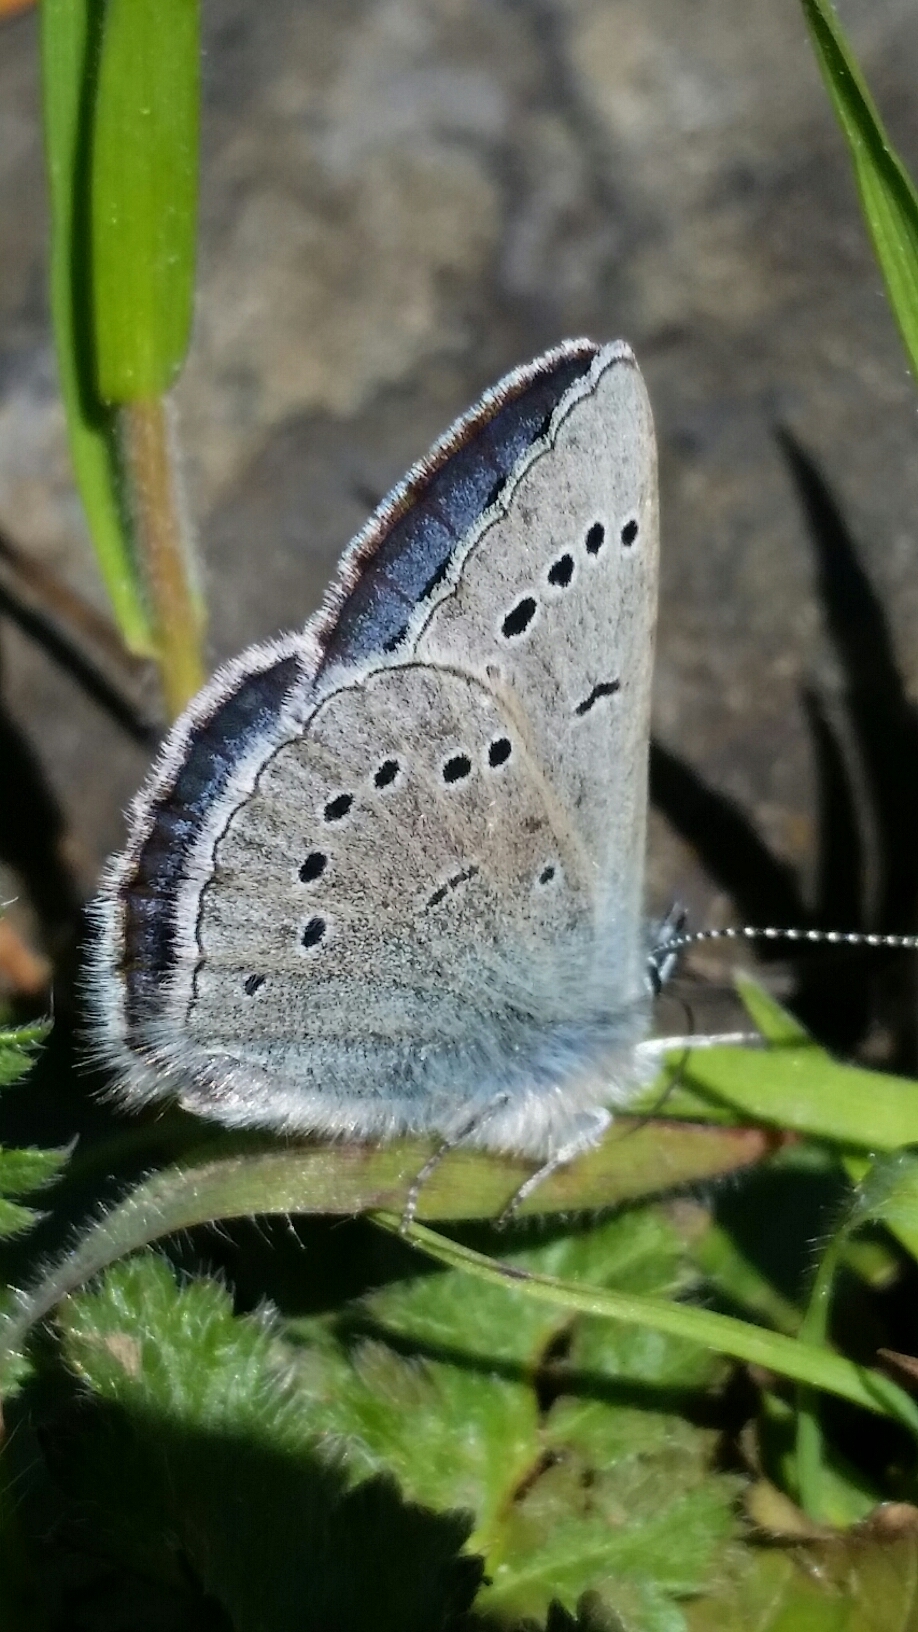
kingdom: Animalia
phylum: Arthropoda
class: Insecta
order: Lepidoptera
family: Lycaenidae
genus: Glaucopsyche
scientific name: Glaucopsyche lygdamus
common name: Silvery blue
